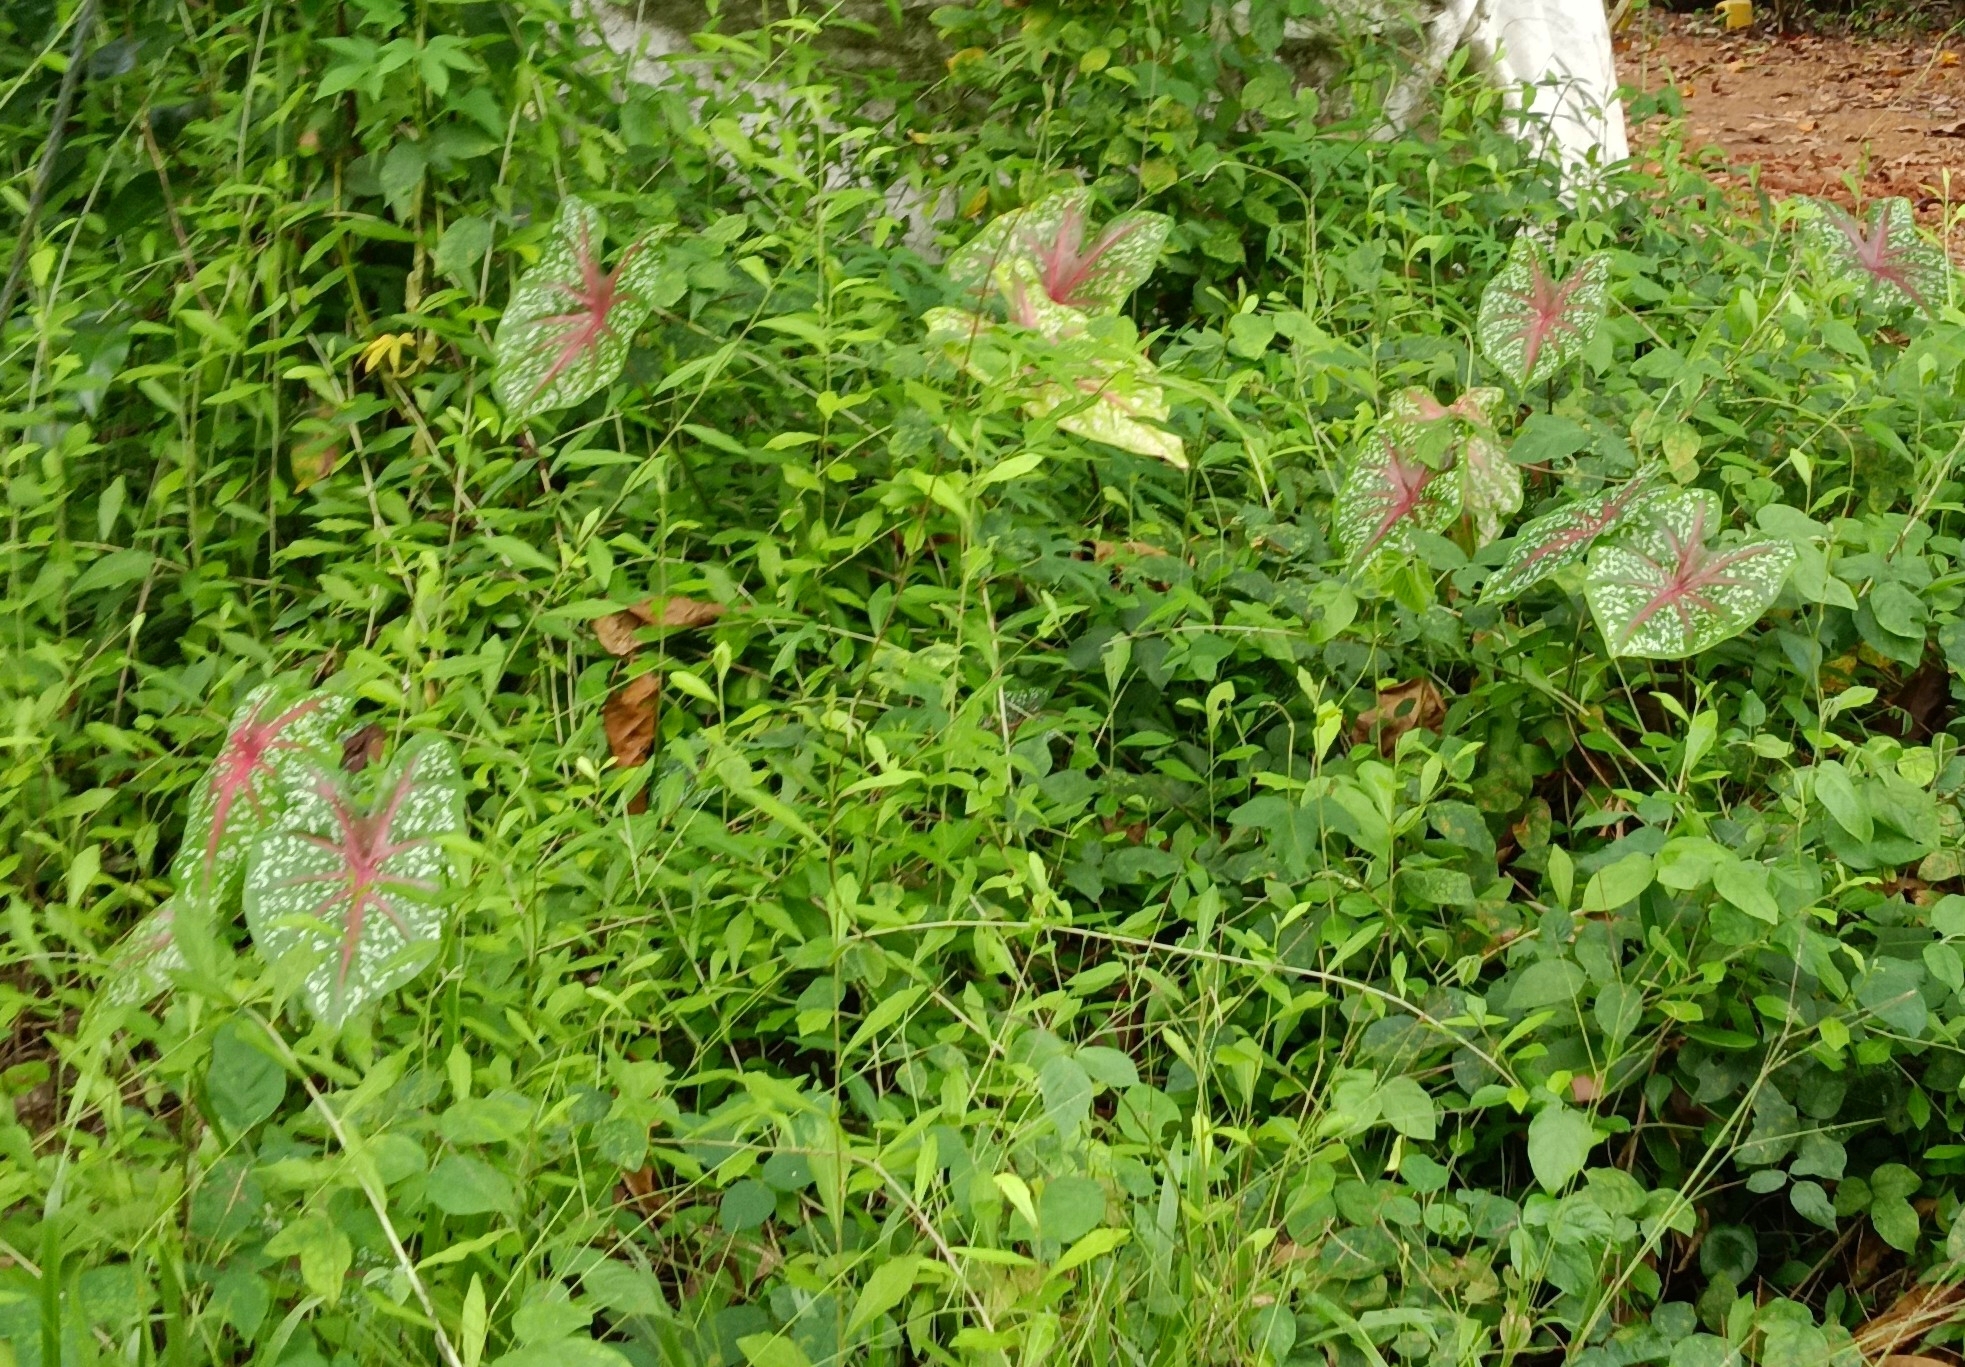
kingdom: Plantae
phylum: Tracheophyta
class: Liliopsida
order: Alismatales
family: Araceae
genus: Caladium
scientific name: Caladium bicolor
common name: Artist's pallet
